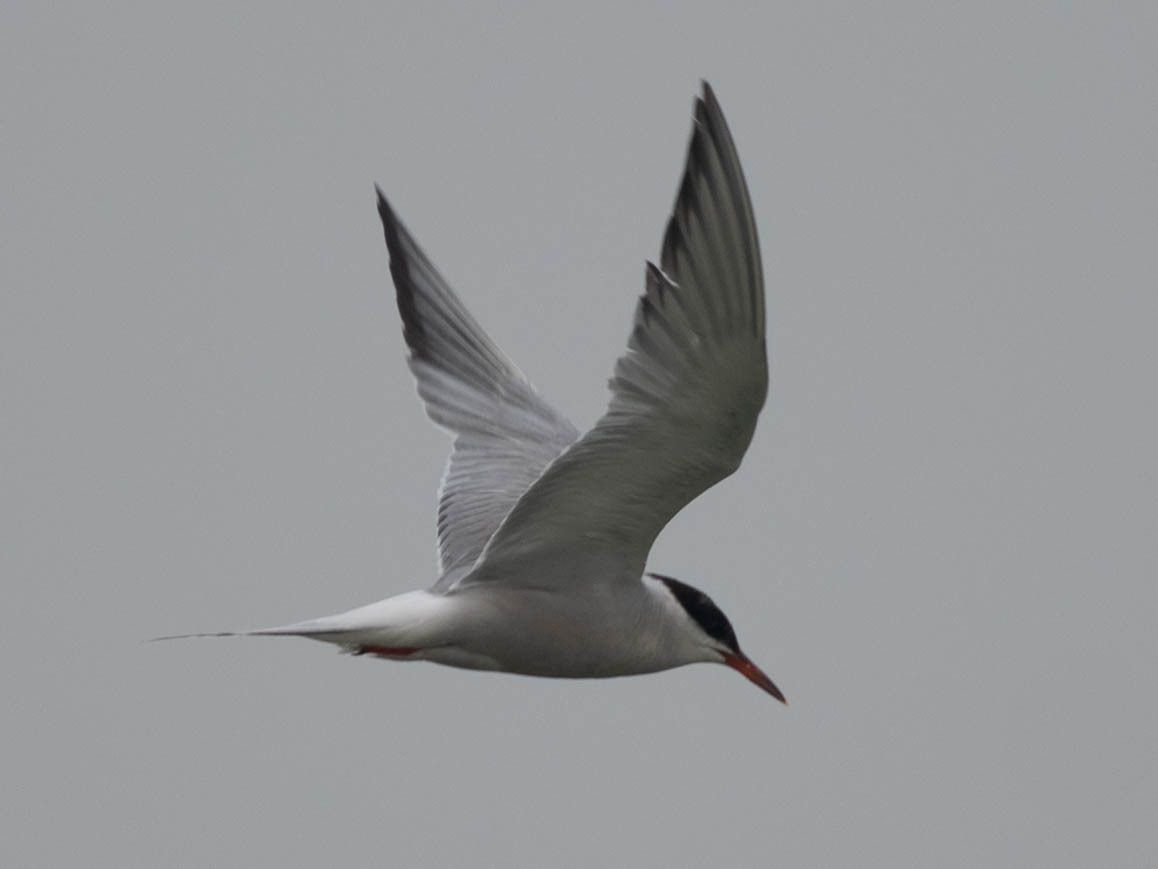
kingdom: Animalia
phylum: Chordata
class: Aves
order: Charadriiformes
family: Laridae
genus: Sterna
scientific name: Sterna hirundo
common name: Common tern
